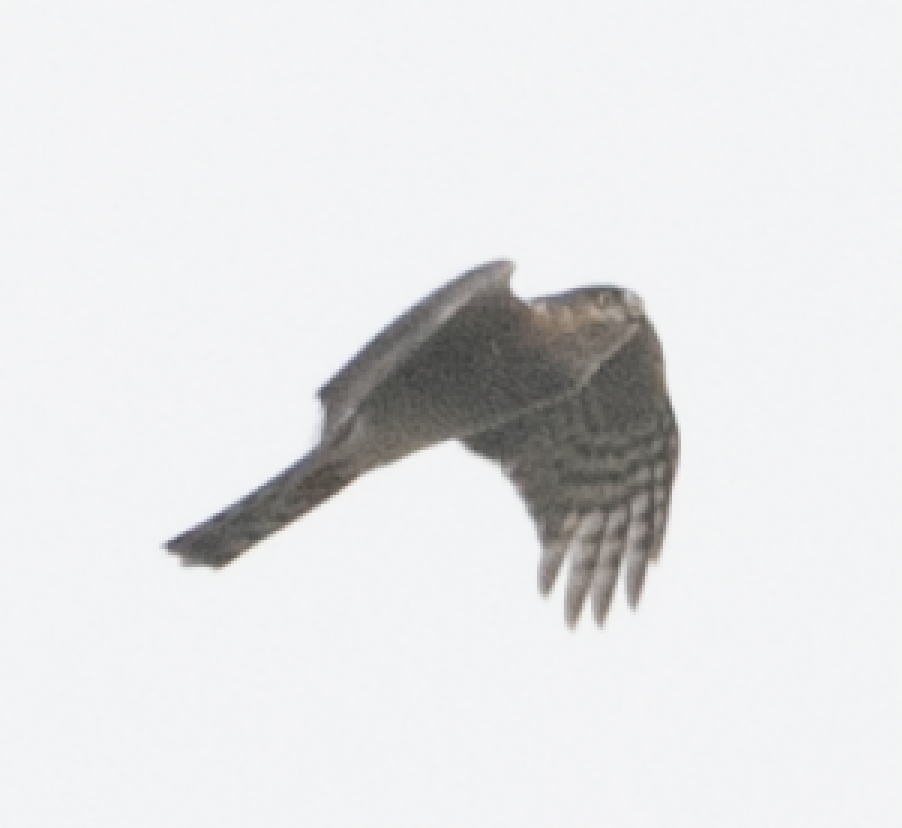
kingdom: Animalia
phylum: Chordata
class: Aves
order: Accipitriformes
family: Accipitridae
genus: Accipiter
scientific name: Accipiter nisus
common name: Eurasian sparrowhawk
